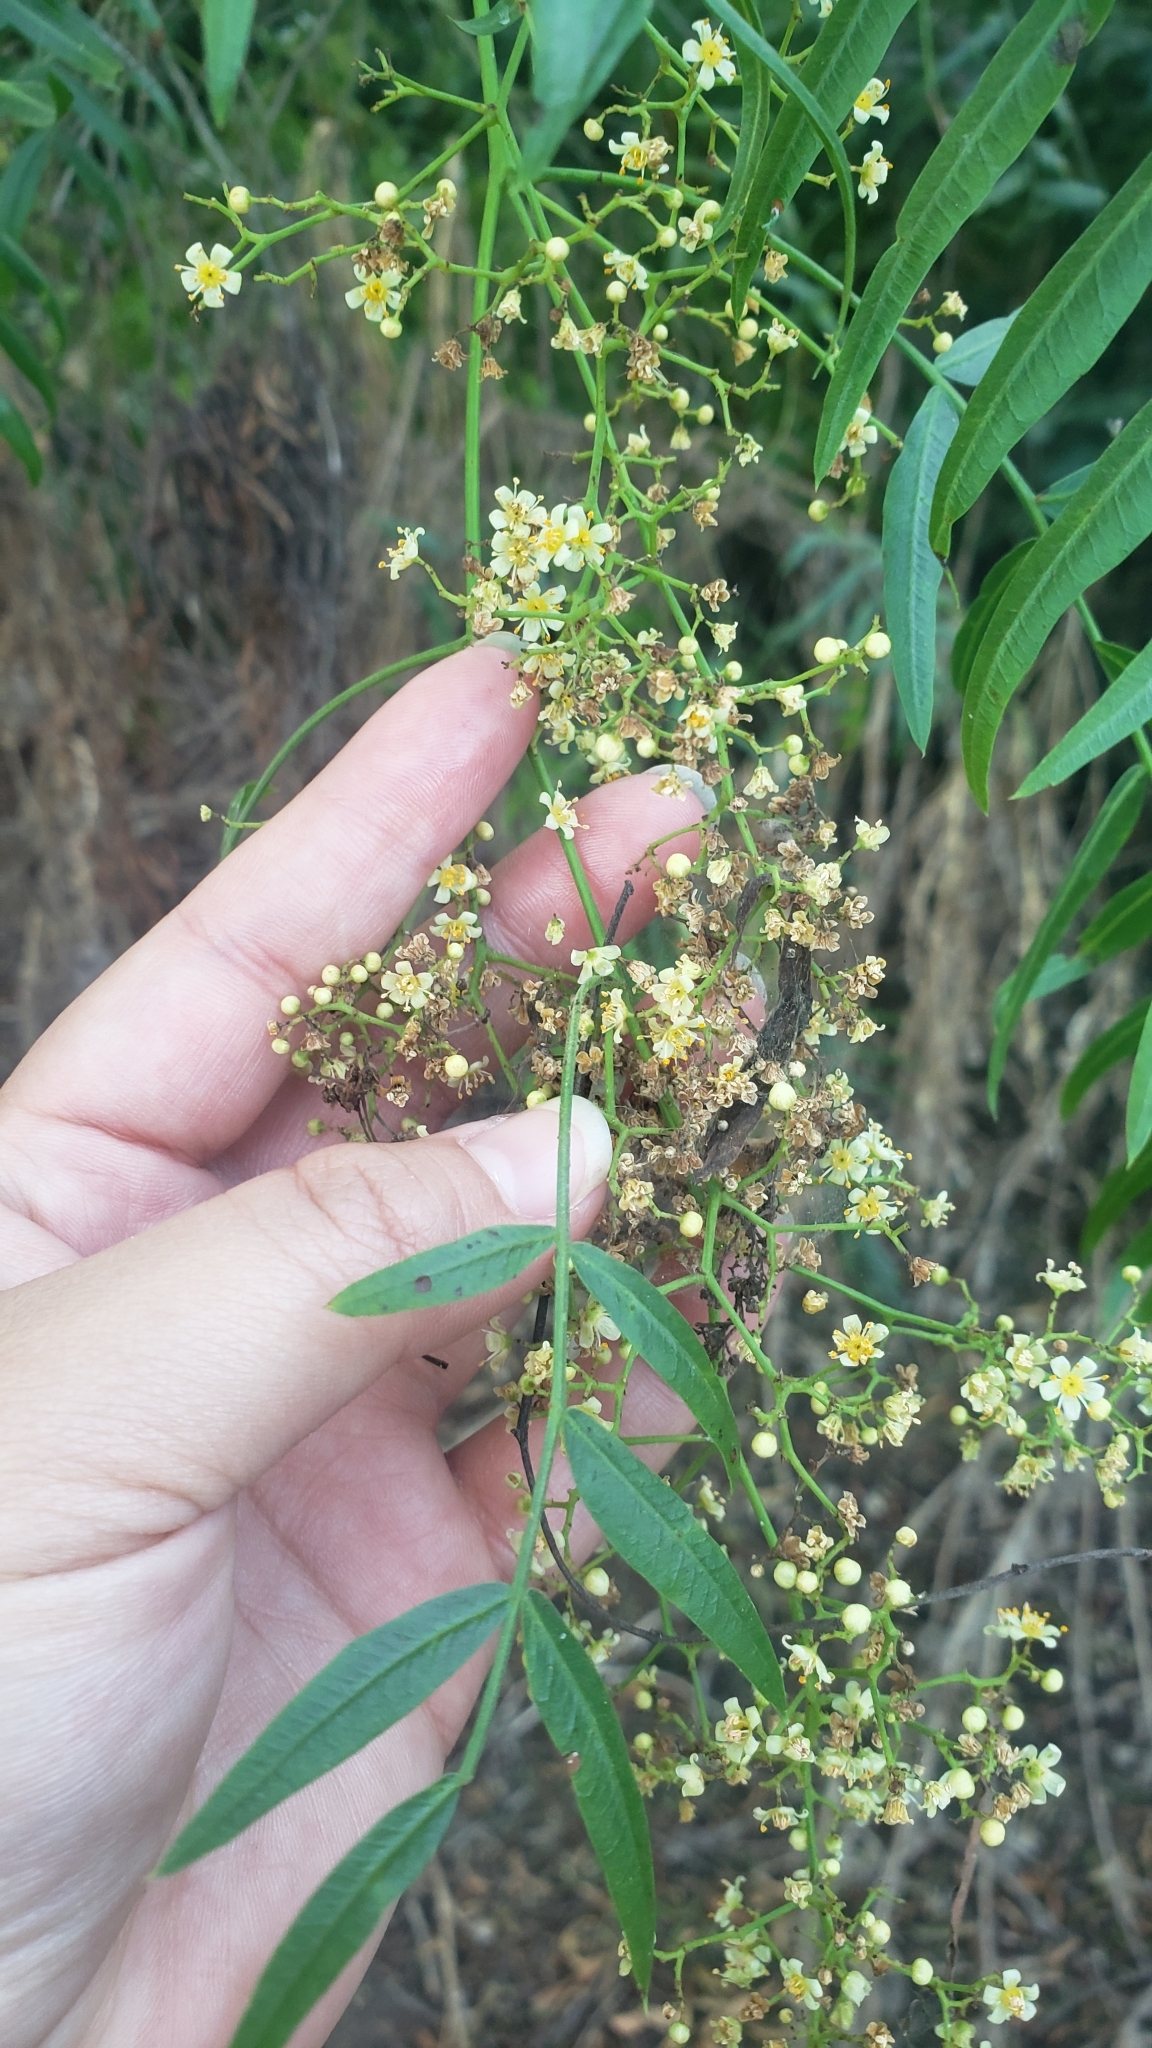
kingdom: Plantae
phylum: Tracheophyta
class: Magnoliopsida
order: Sapindales
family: Anacardiaceae
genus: Schinus
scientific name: Schinus molle
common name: Peruvian peppertree
